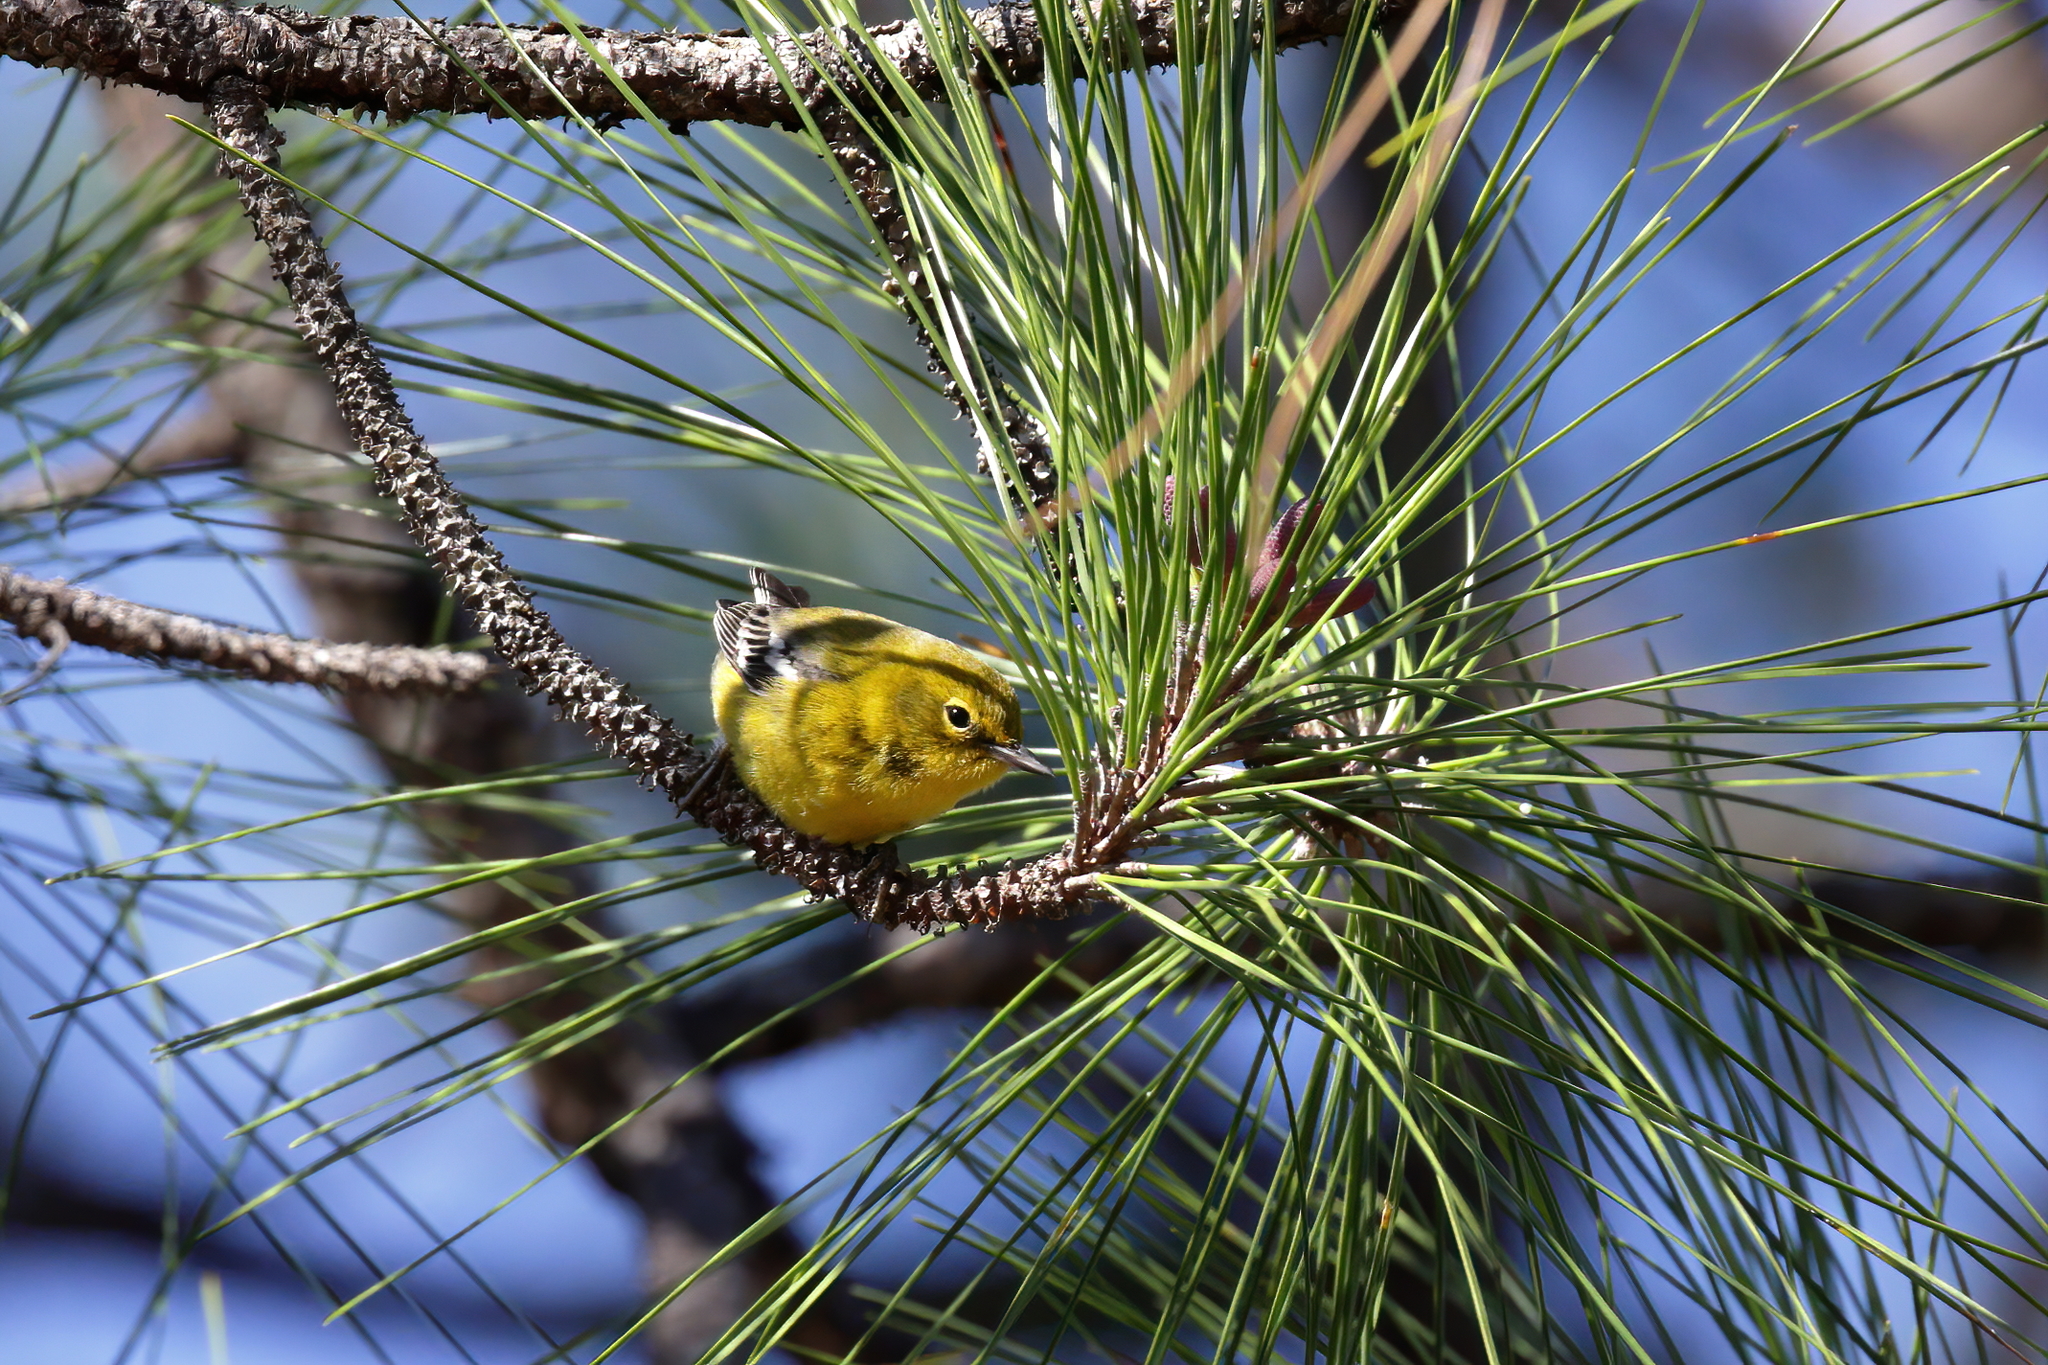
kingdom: Animalia
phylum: Chordata
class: Aves
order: Passeriformes
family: Parulidae
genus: Setophaga
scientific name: Setophaga pinus
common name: Pine warbler
